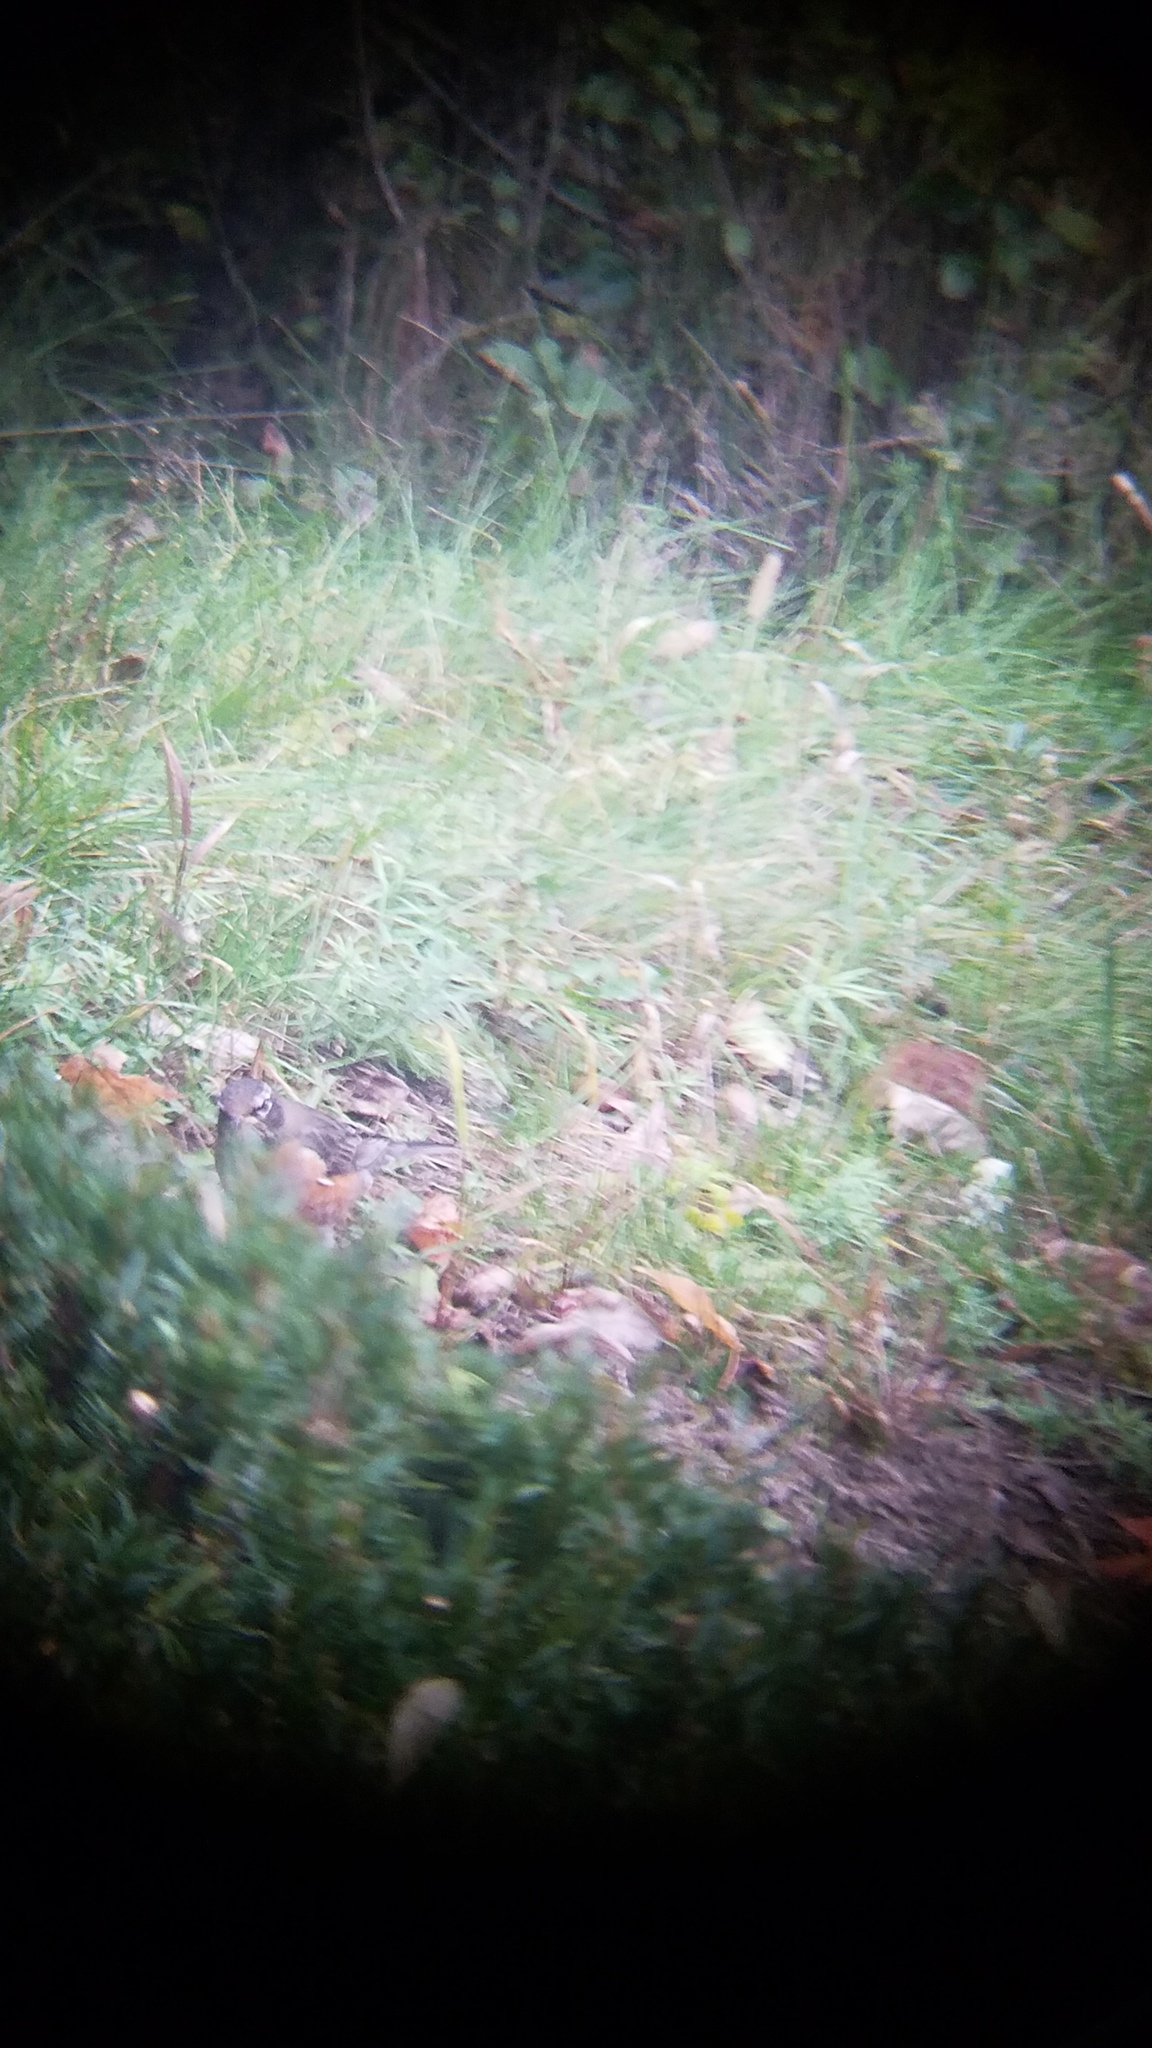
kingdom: Animalia
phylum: Chordata
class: Aves
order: Passeriformes
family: Turdidae
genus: Turdus
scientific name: Turdus migratorius
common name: American robin
